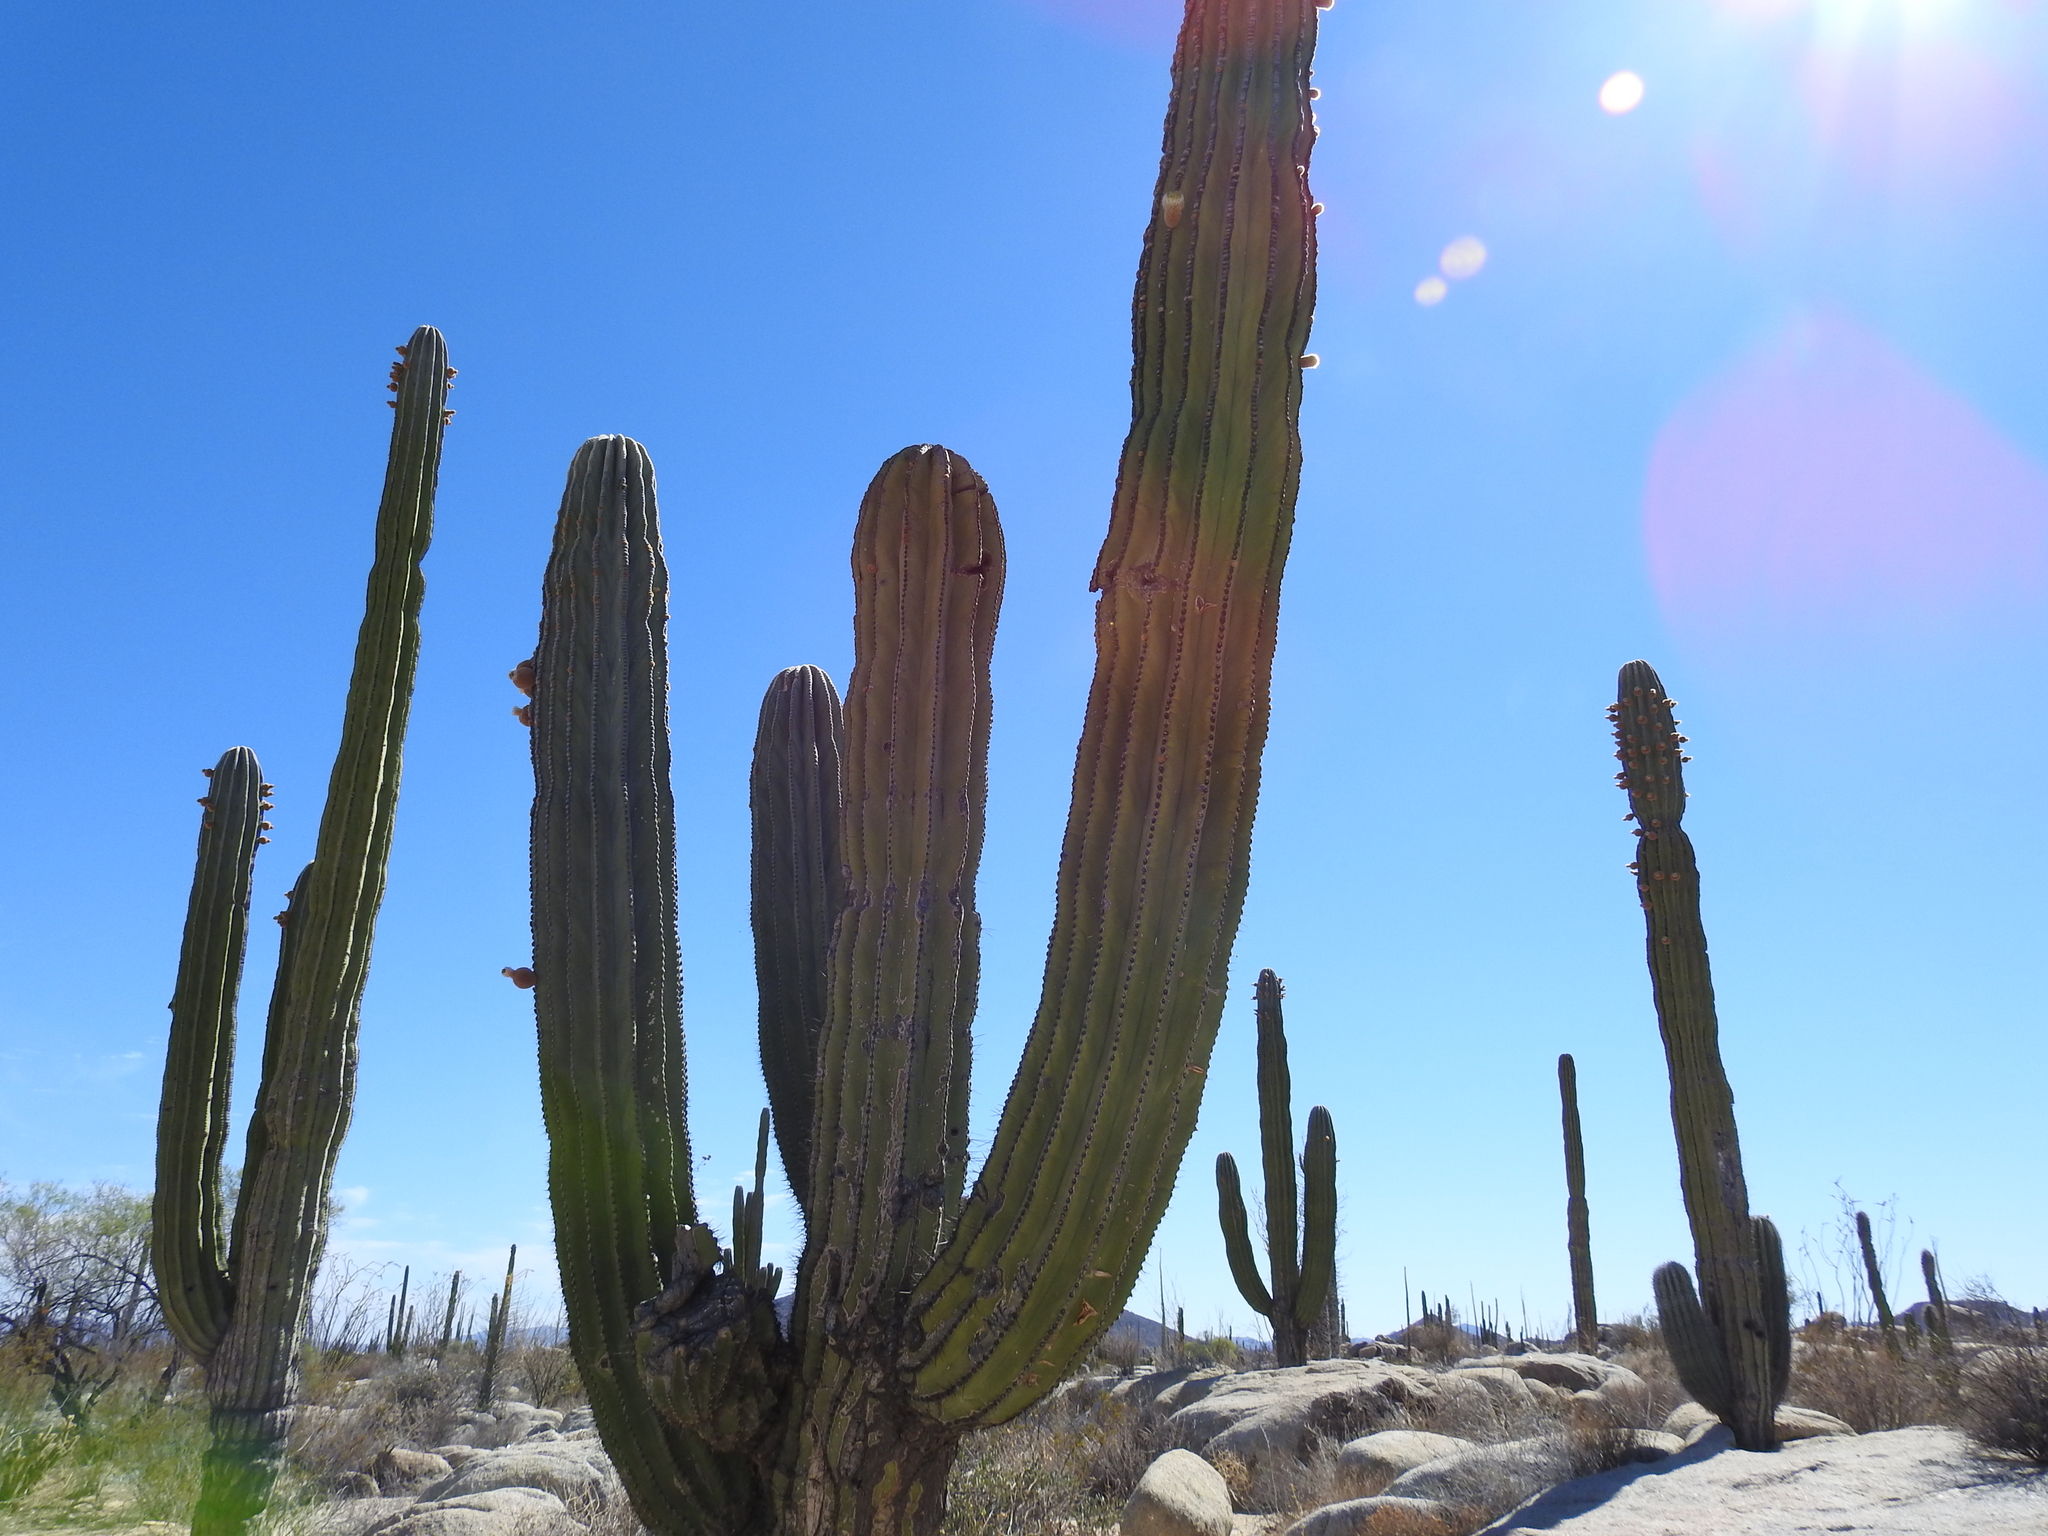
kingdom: Plantae
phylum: Tracheophyta
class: Magnoliopsida
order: Caryophyllales
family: Cactaceae
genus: Pachycereus
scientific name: Pachycereus pringlei
